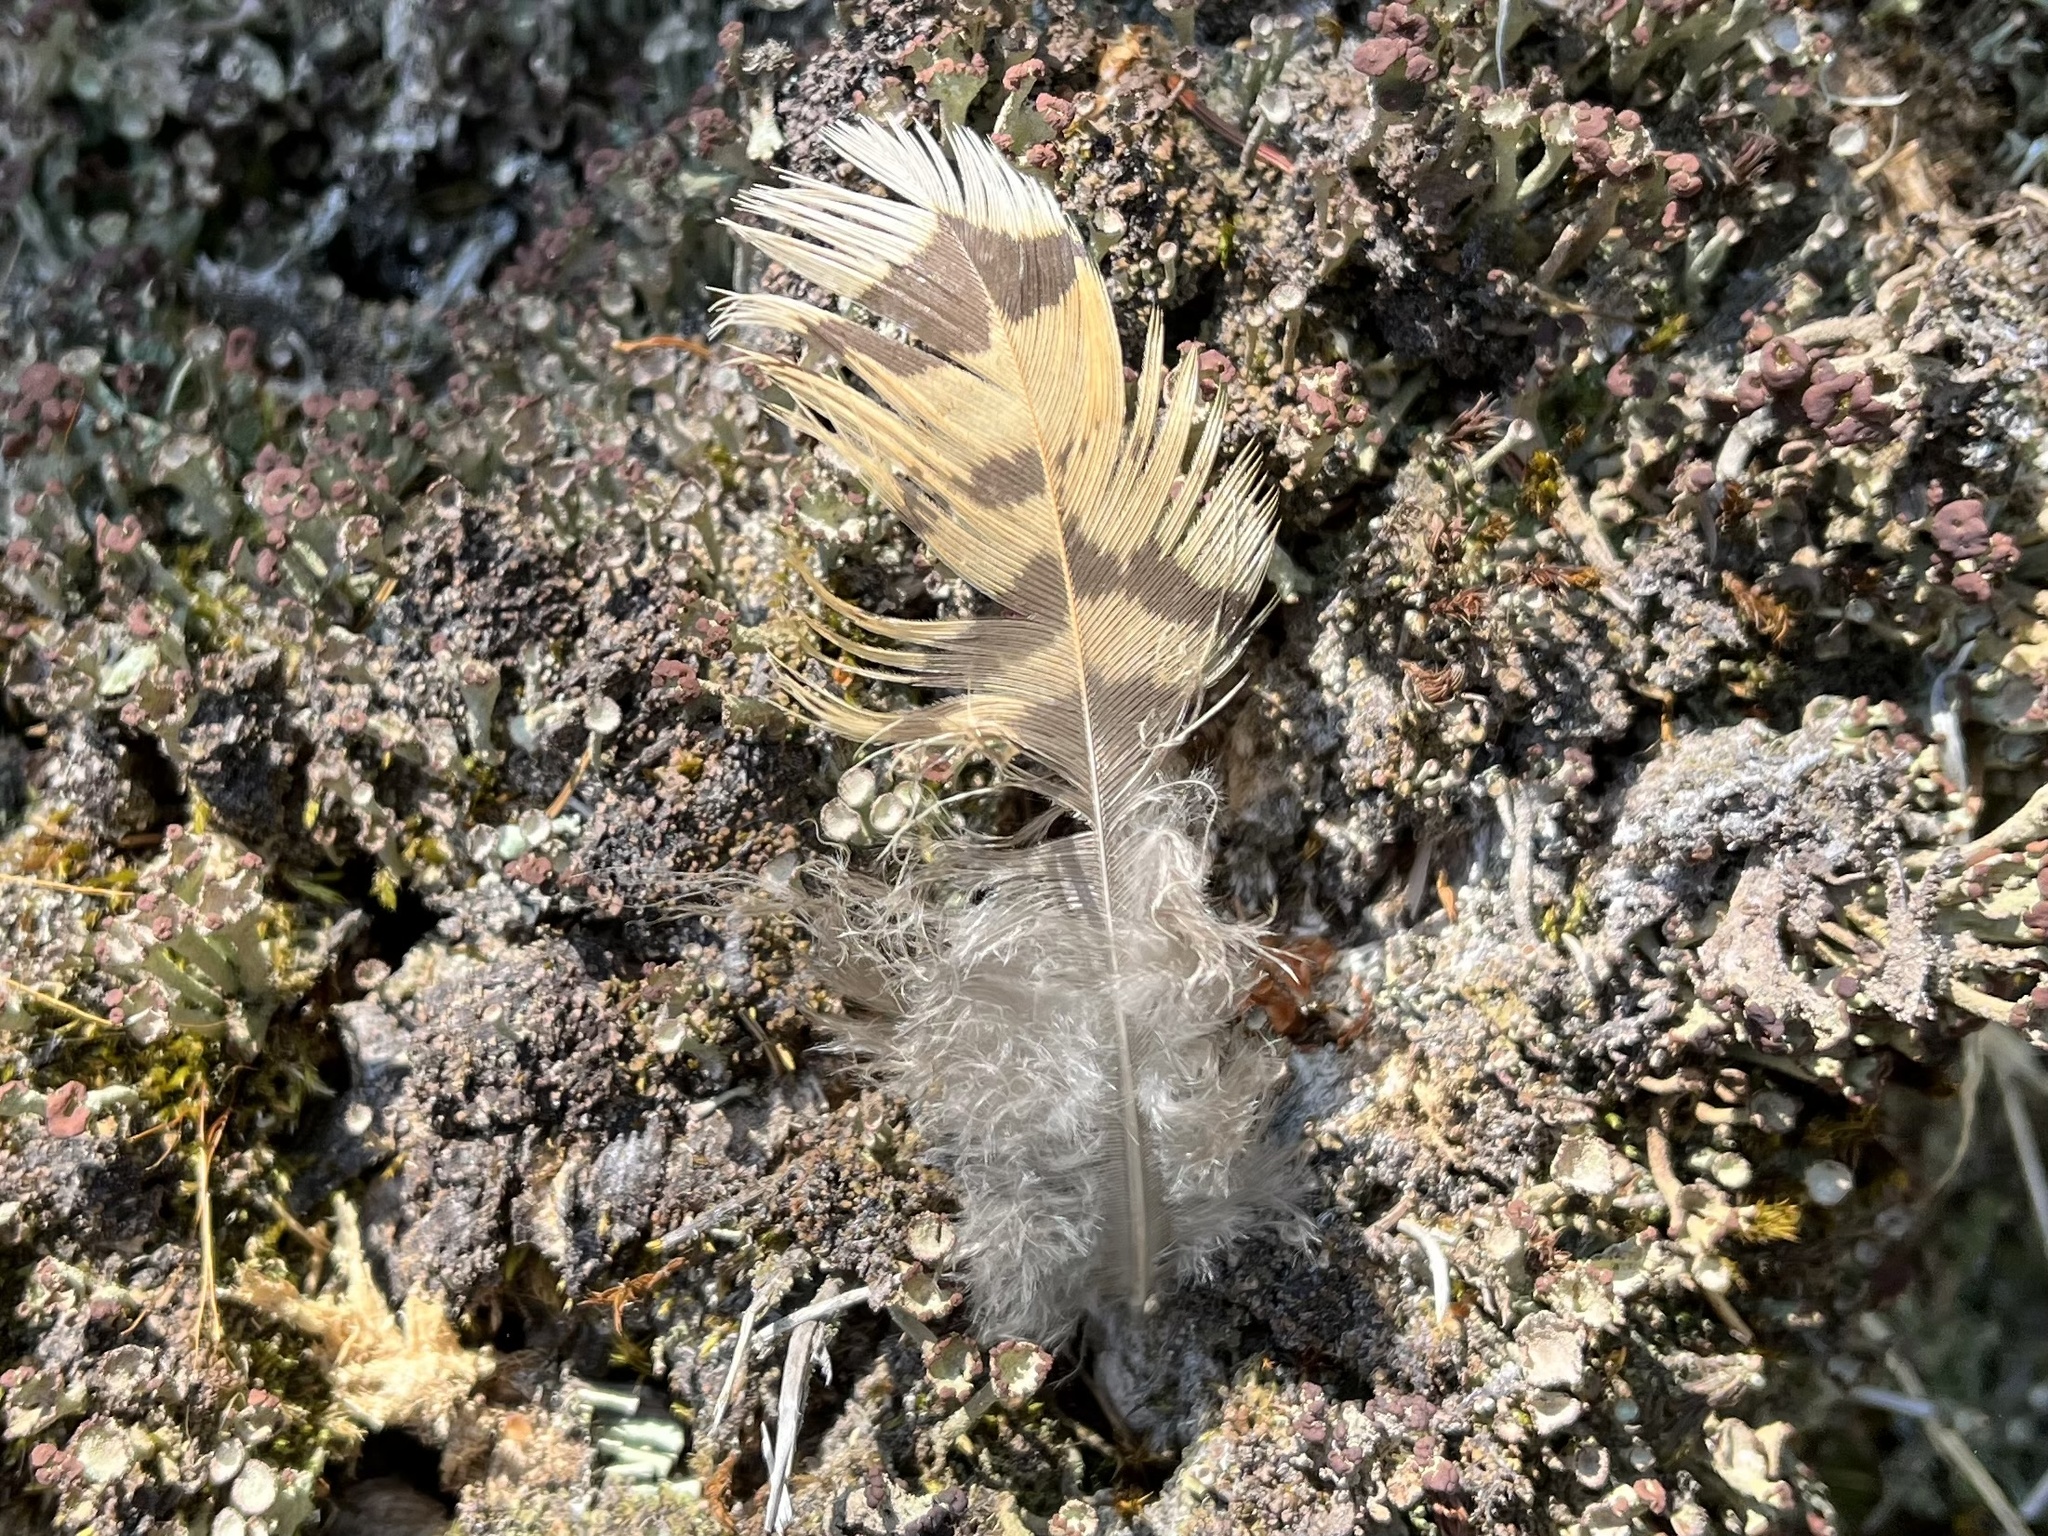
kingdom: Animalia
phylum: Chordata
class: Aves
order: Galliformes
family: Phasianidae
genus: Tetrao
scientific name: Tetrao urogallus
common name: Western capercaillie
